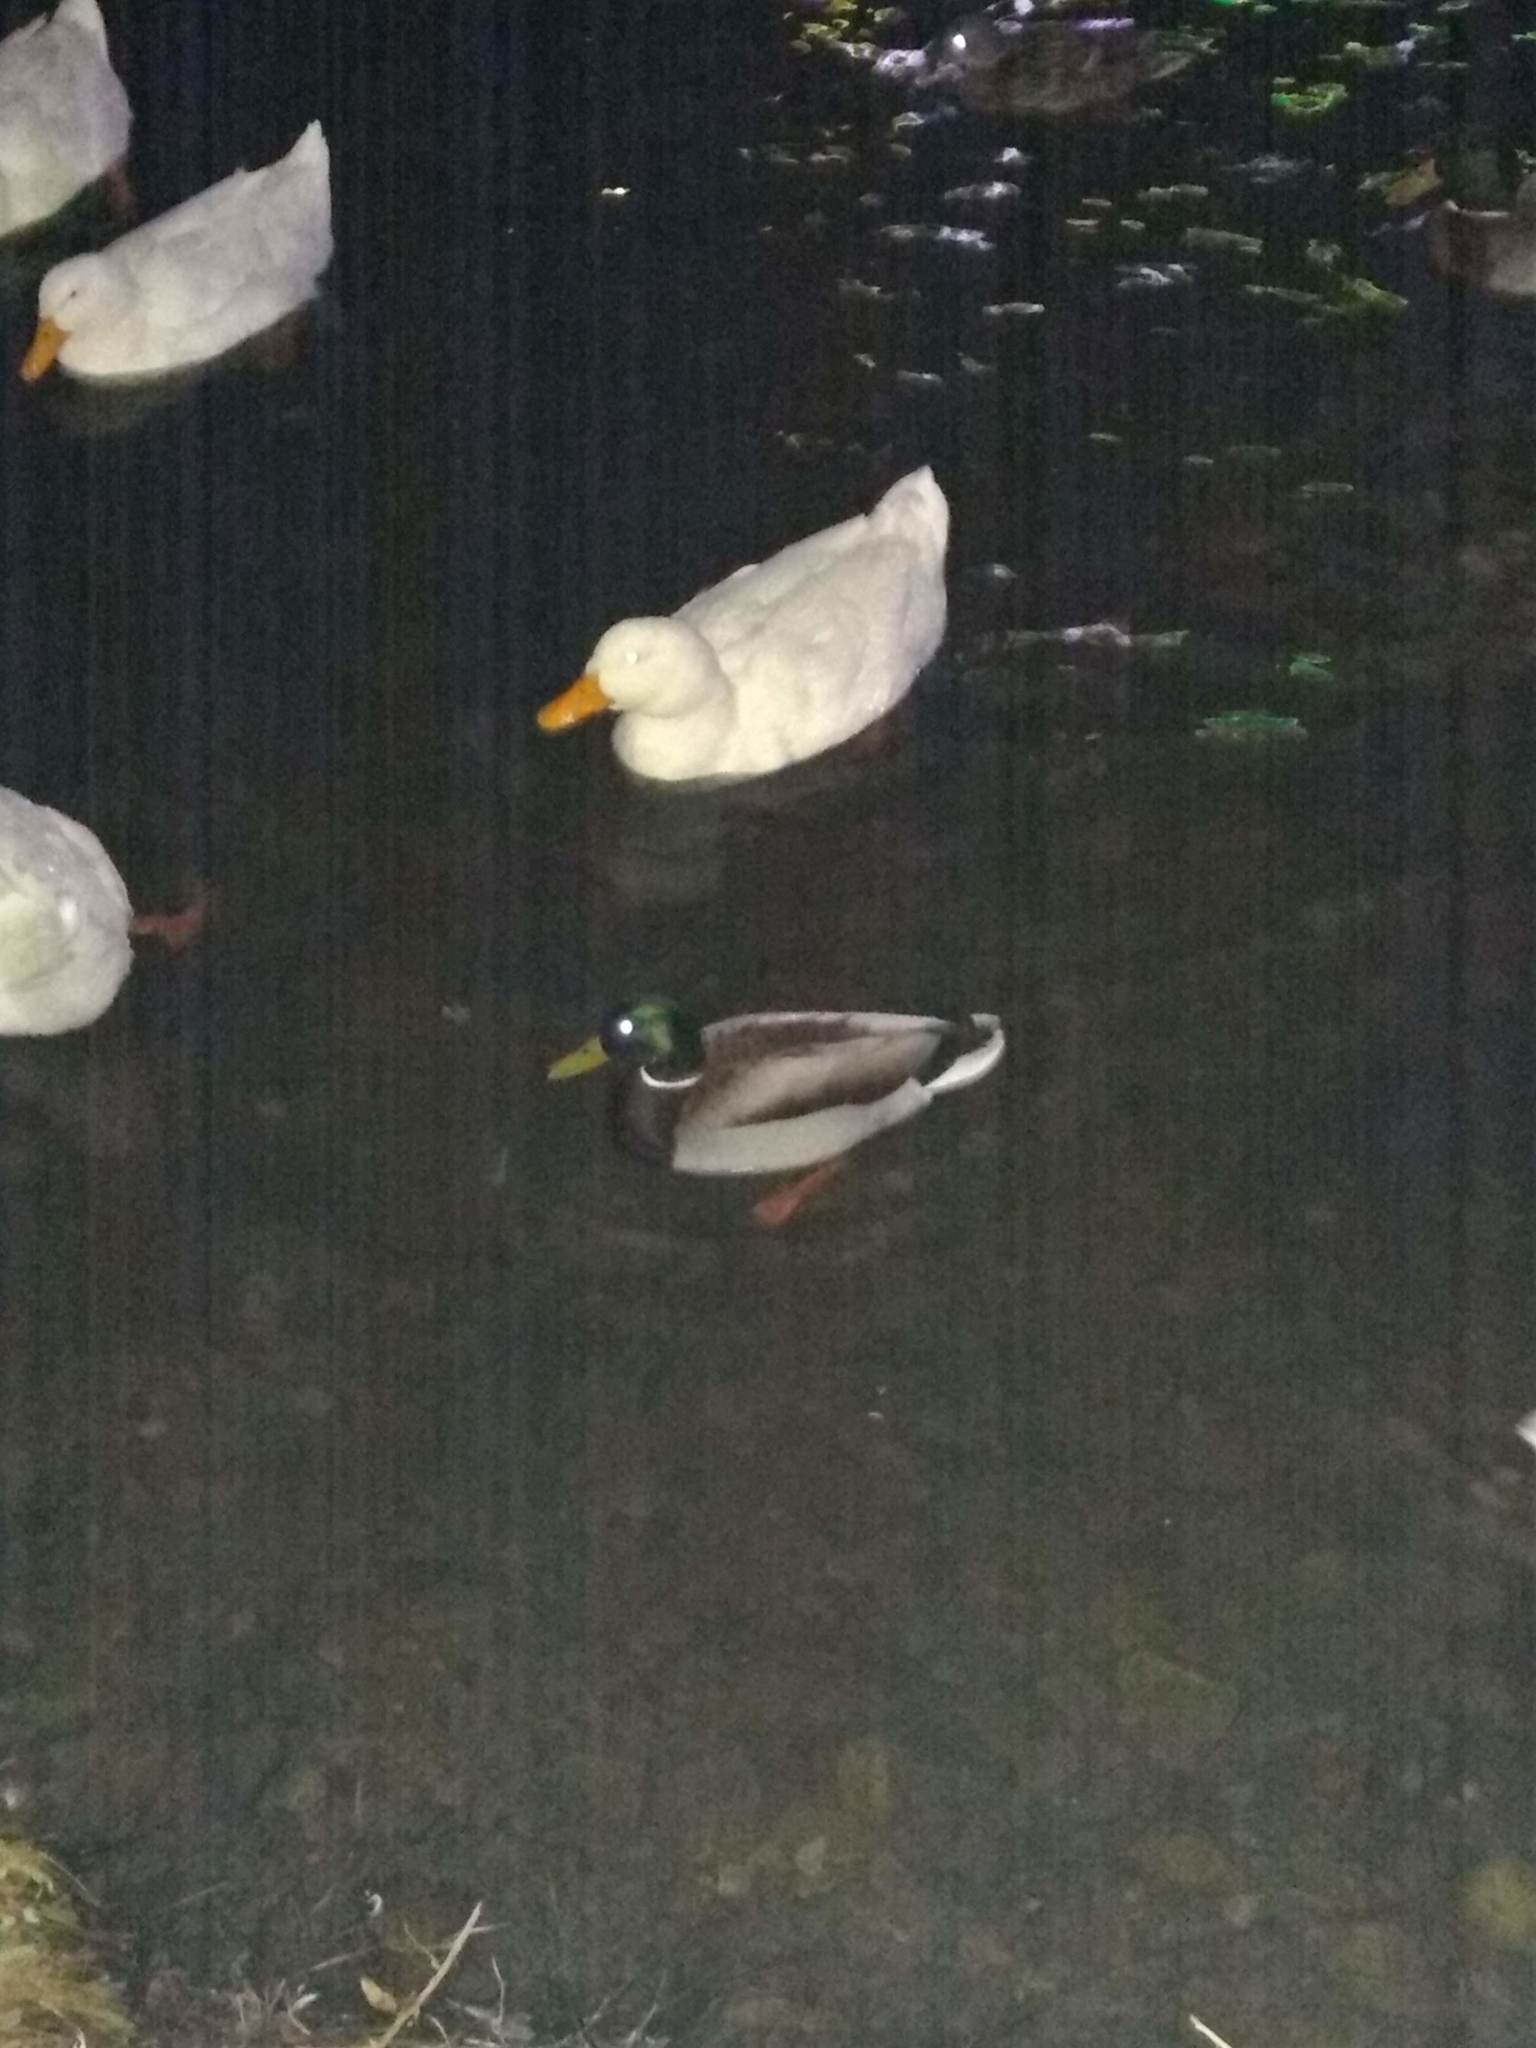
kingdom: Animalia
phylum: Chordata
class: Aves
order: Anseriformes
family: Anatidae
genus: Anas
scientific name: Anas platyrhynchos
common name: Mallard
